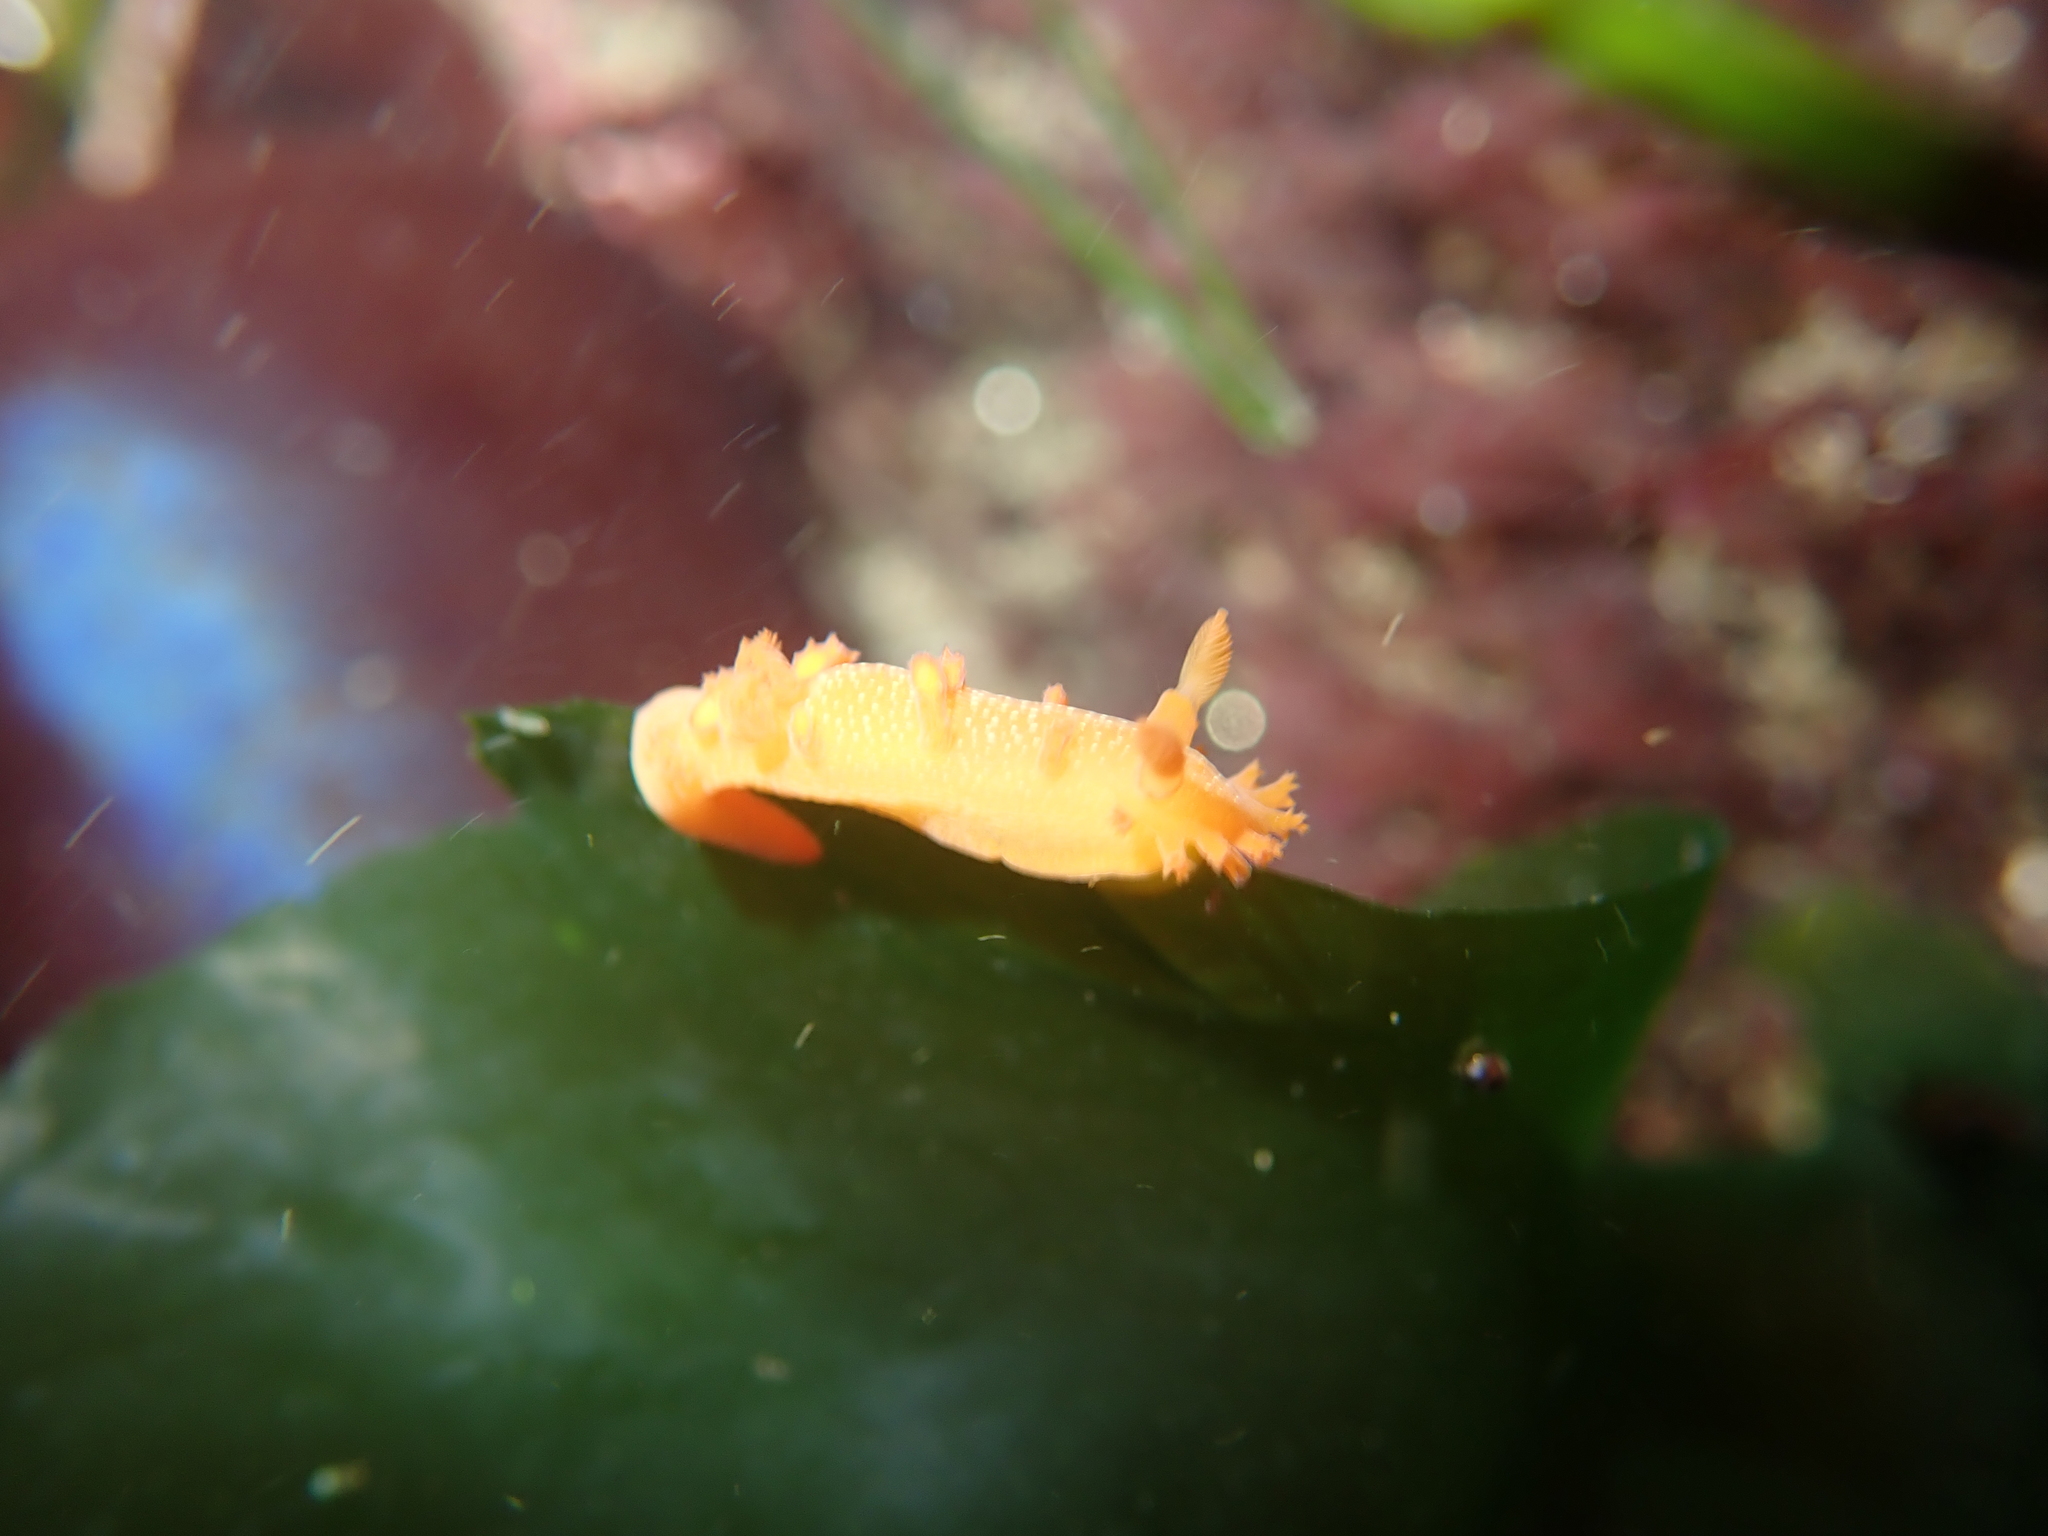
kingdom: Animalia
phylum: Mollusca
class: Gastropoda
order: Nudibranchia
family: Polyceridae
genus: Triopha
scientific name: Triopha maculata
